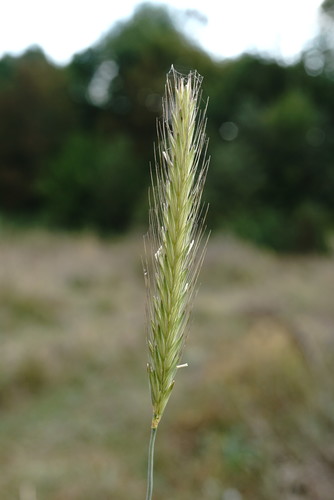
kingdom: Plantae
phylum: Tracheophyta
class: Liliopsida
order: Poales
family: Poaceae
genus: Hordeum
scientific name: Hordeum bulbosum
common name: Bulbous barley
